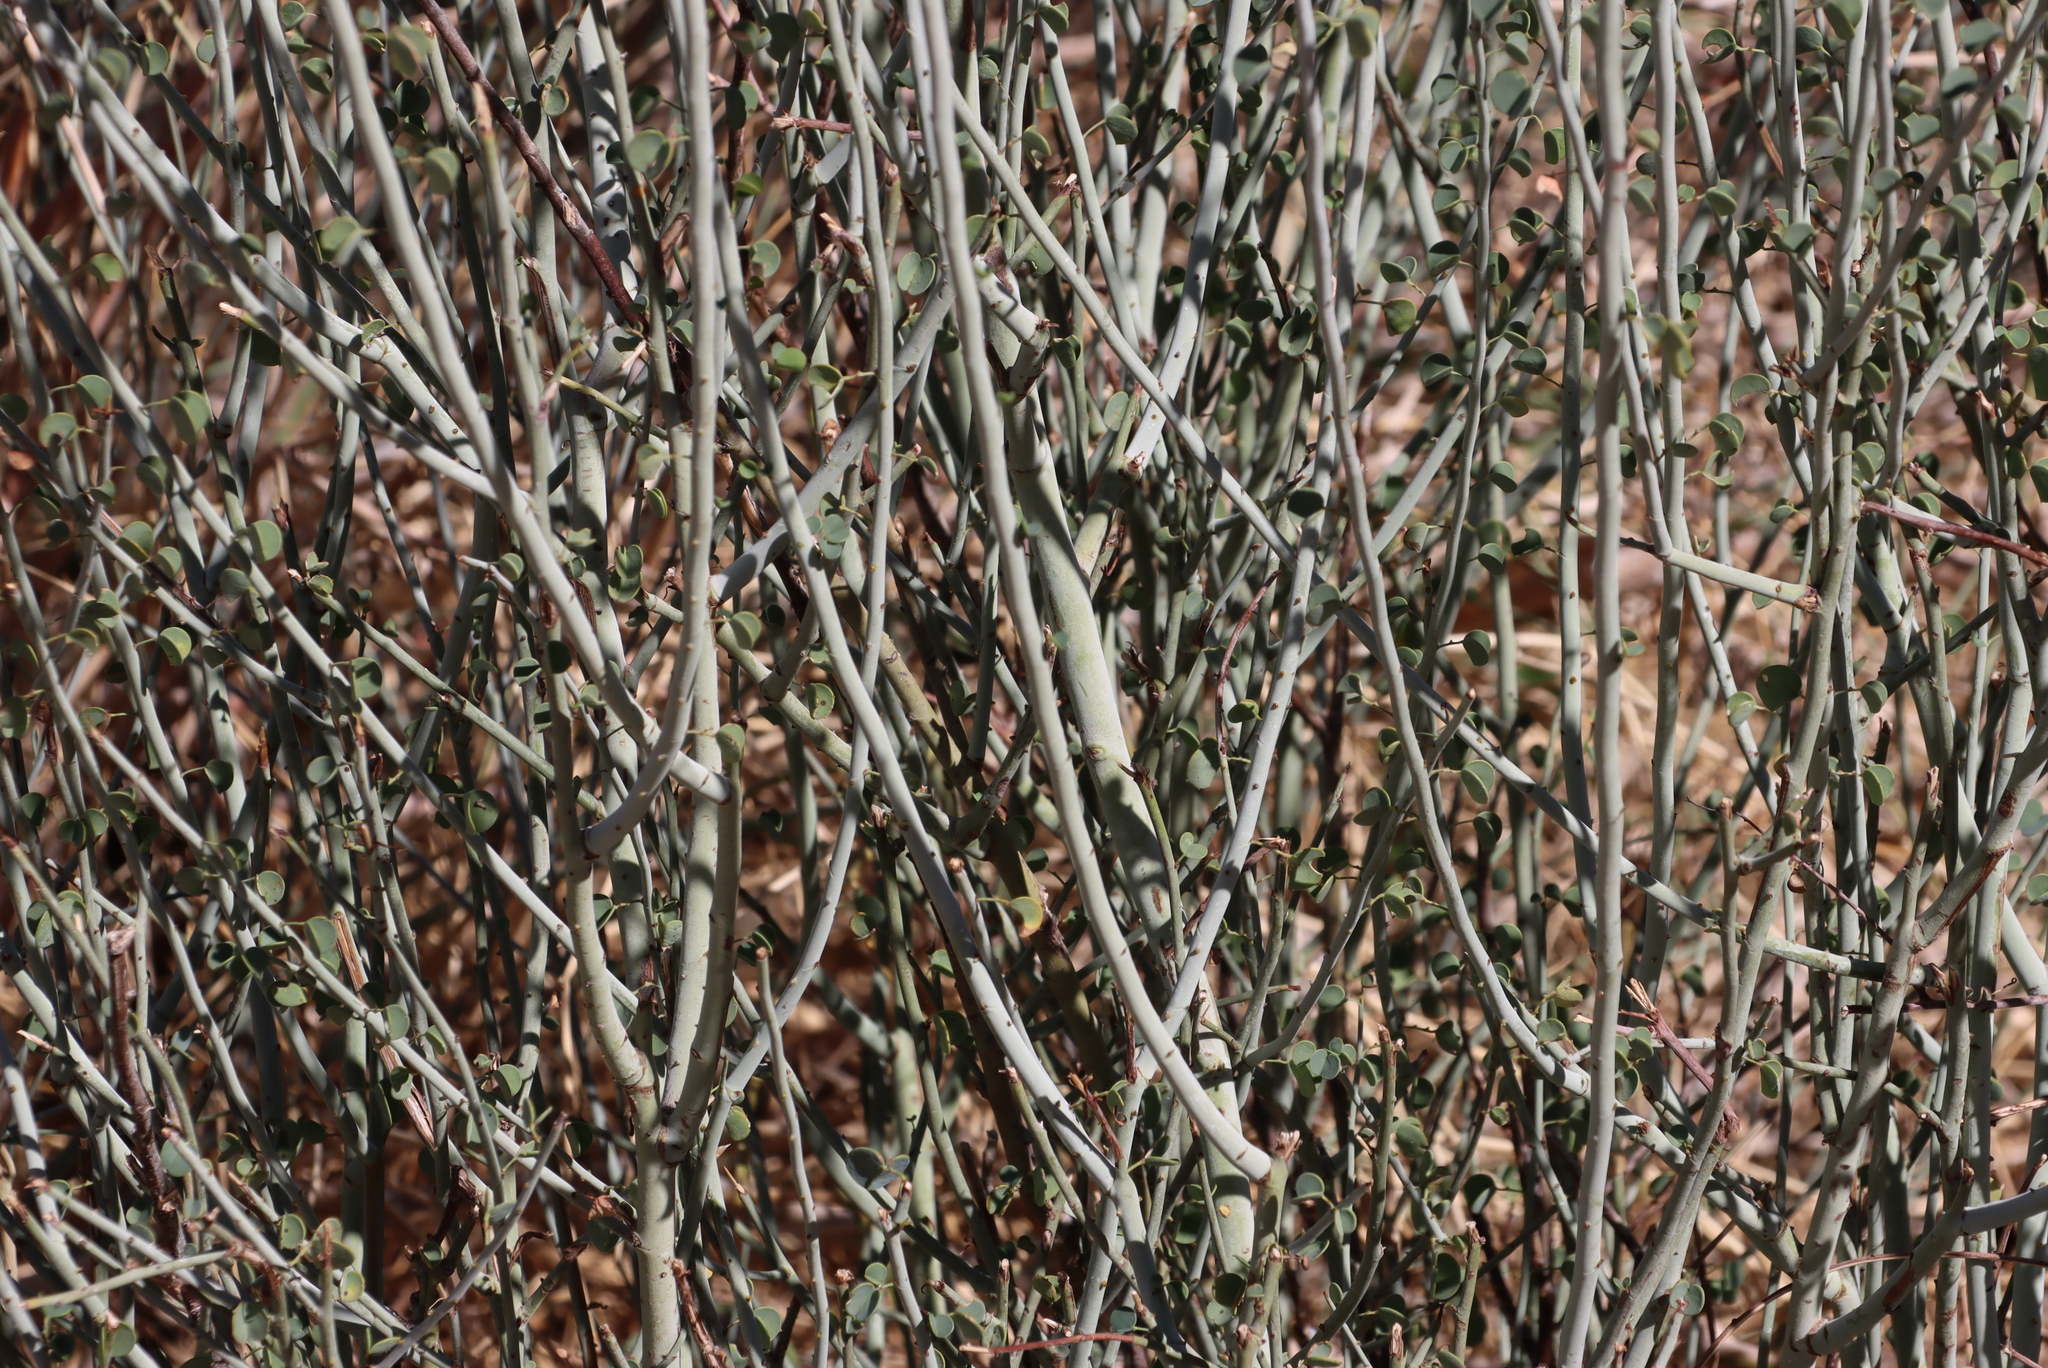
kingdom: Plantae
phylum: Tracheophyta
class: Magnoliopsida
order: Fabales
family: Fabaceae
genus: Adenolobus
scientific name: Adenolobus garipensis
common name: Butterfly-leaf
